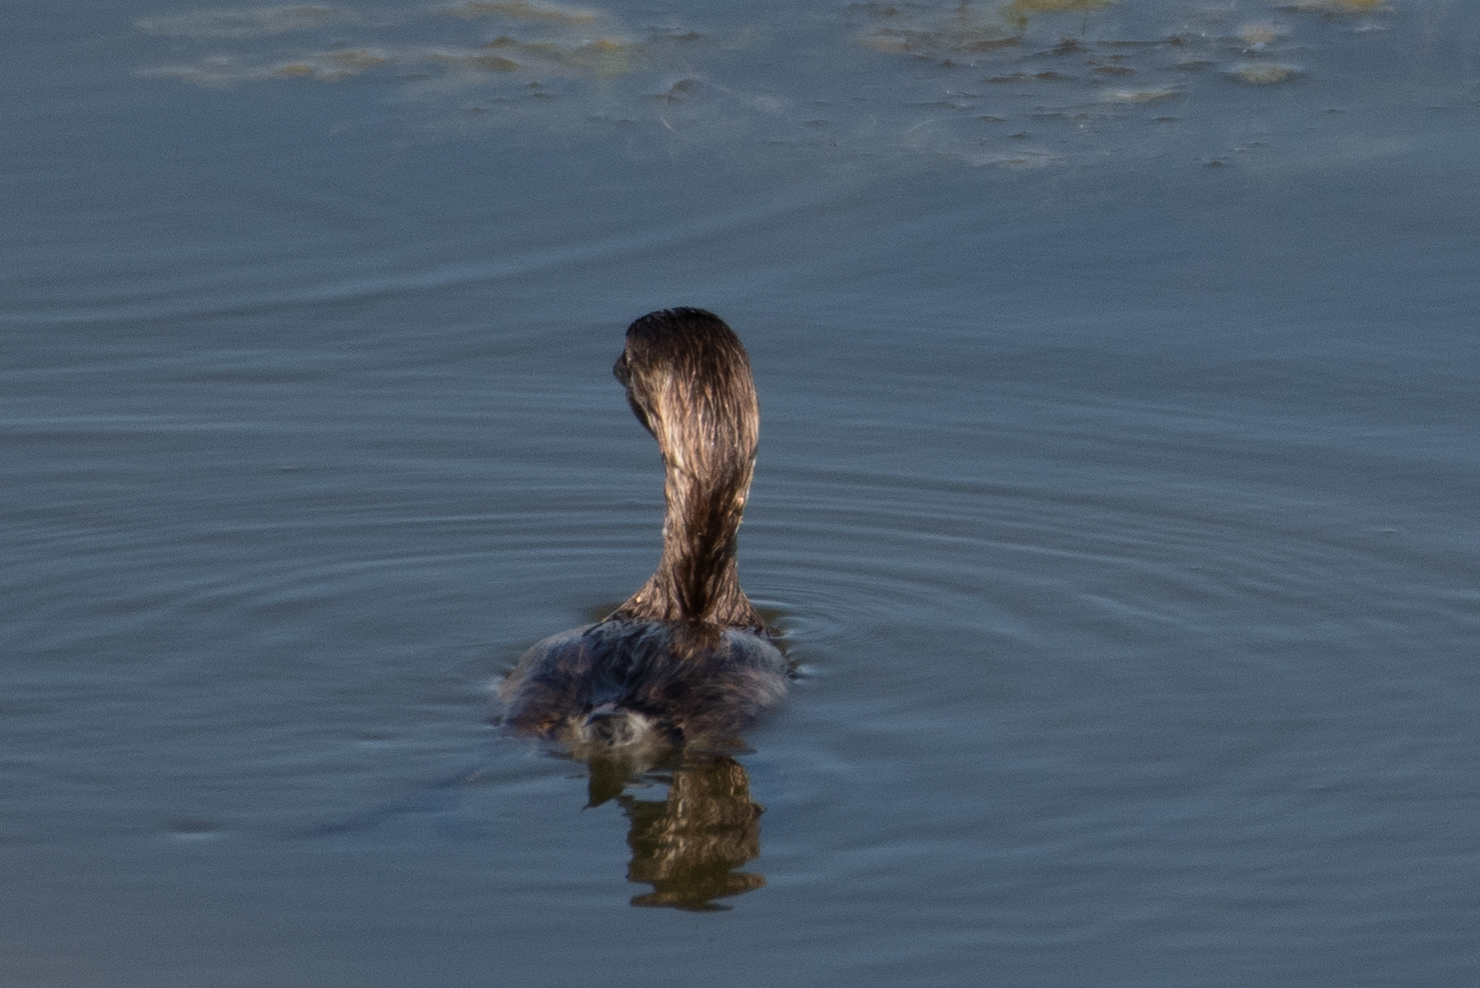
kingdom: Animalia
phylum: Chordata
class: Aves
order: Podicipediformes
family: Podicipedidae
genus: Podilymbus
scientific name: Podilymbus podiceps
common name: Pied-billed grebe
